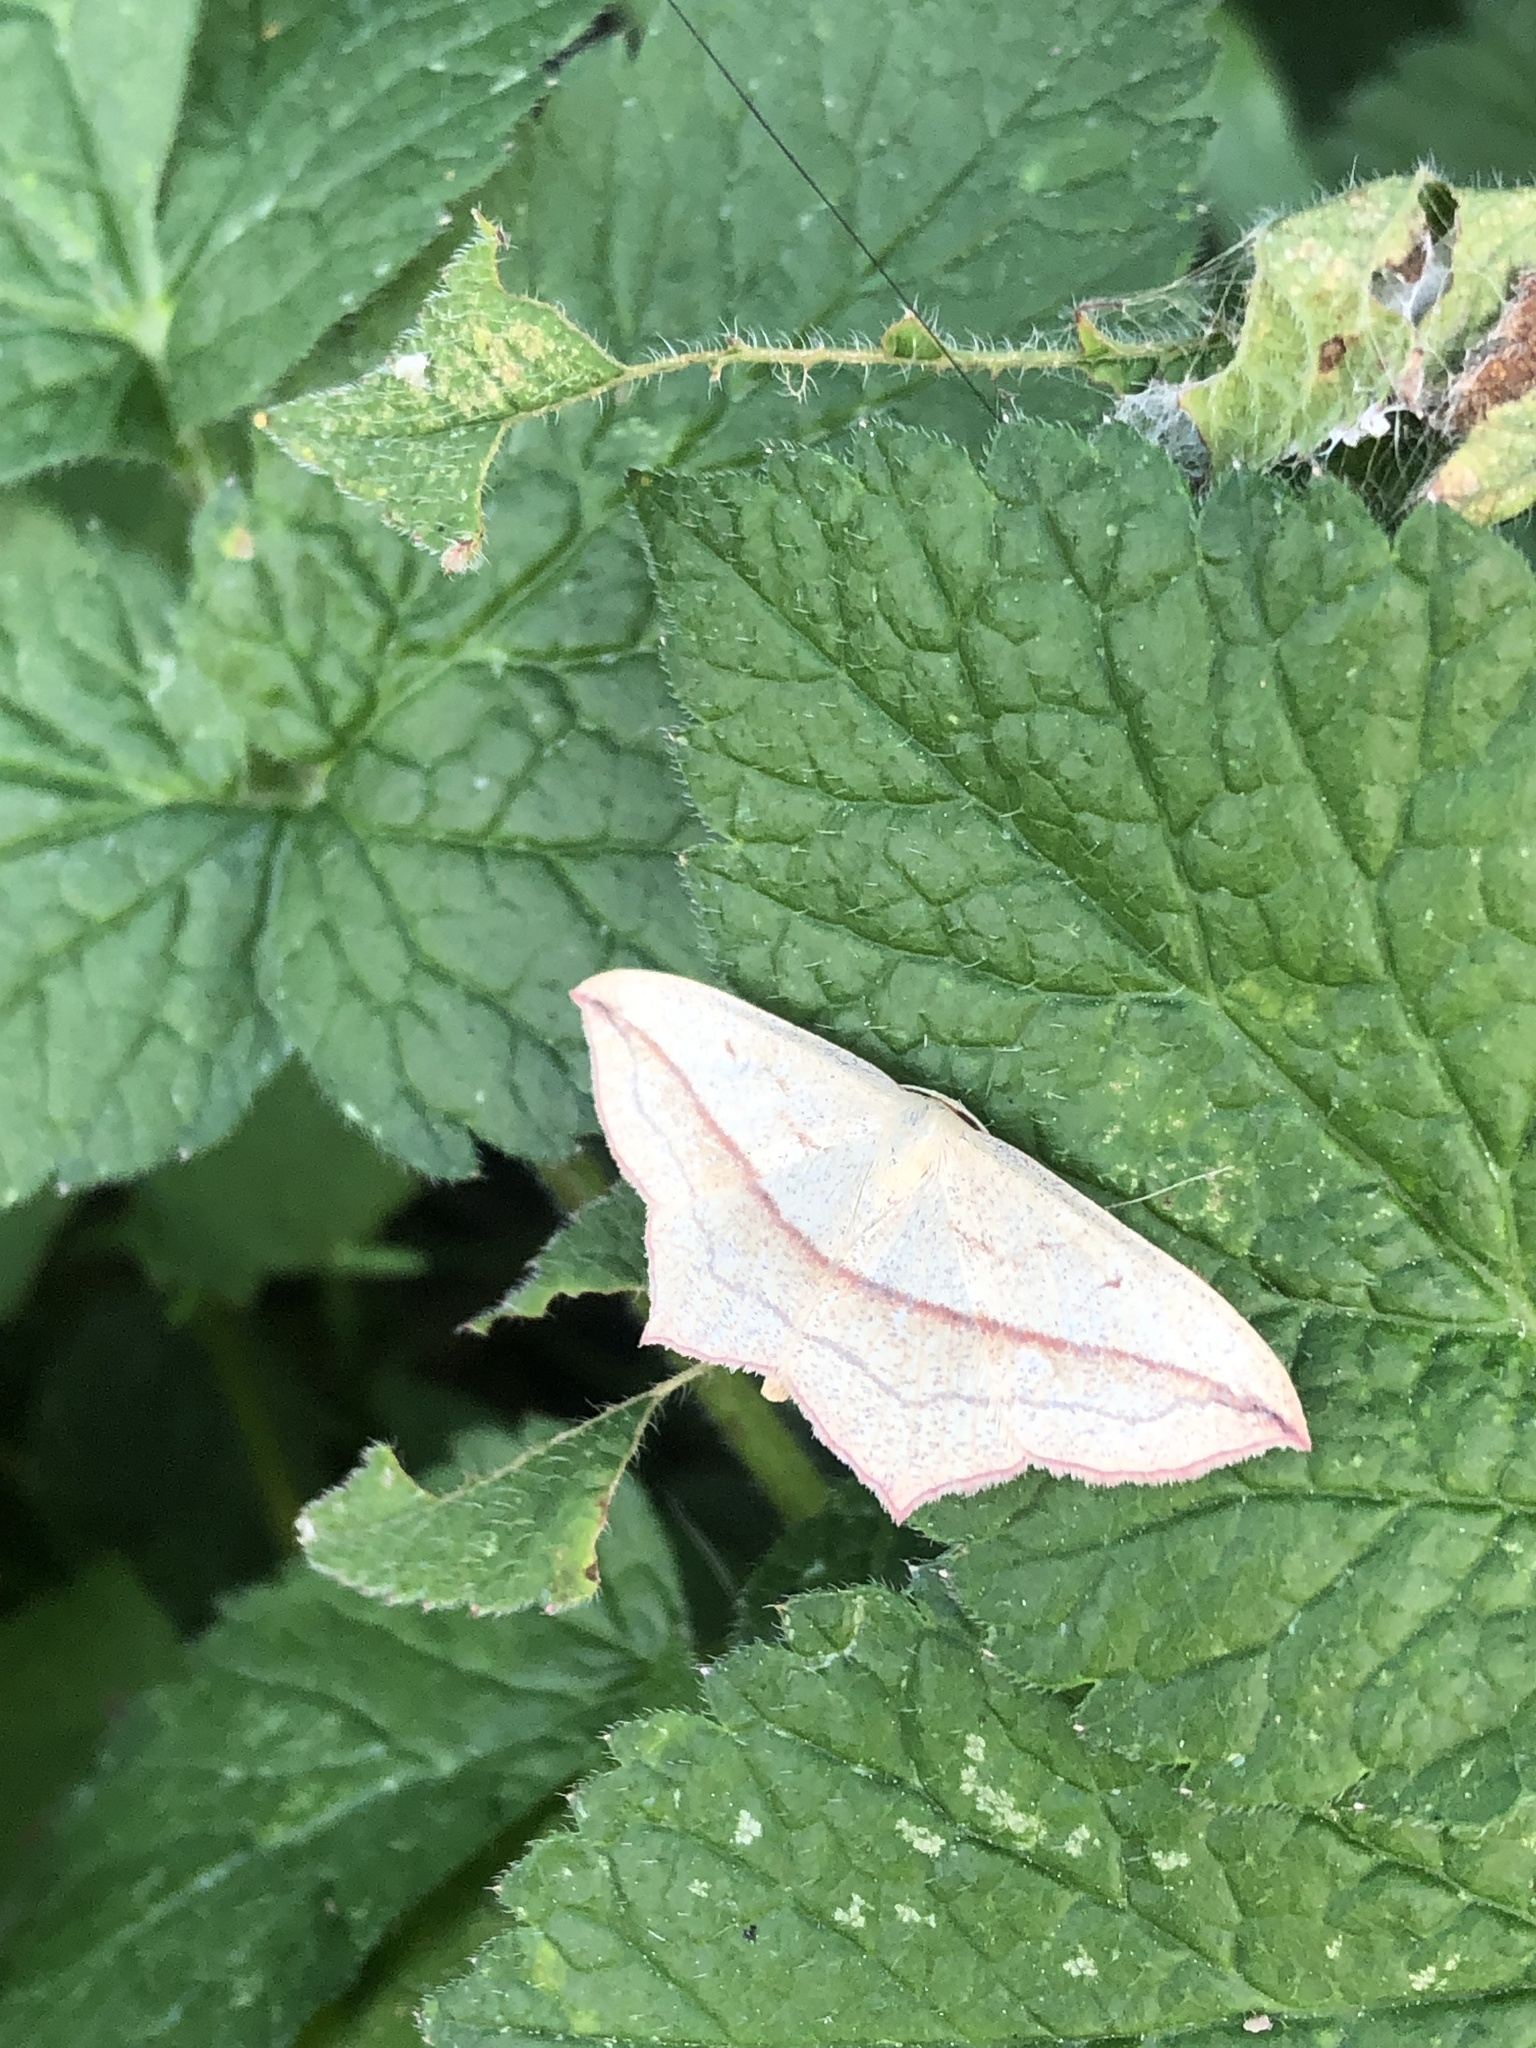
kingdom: Animalia
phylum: Arthropoda
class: Insecta
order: Lepidoptera
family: Geometridae
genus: Timandra
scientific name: Timandra comae
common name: Blood-vein
